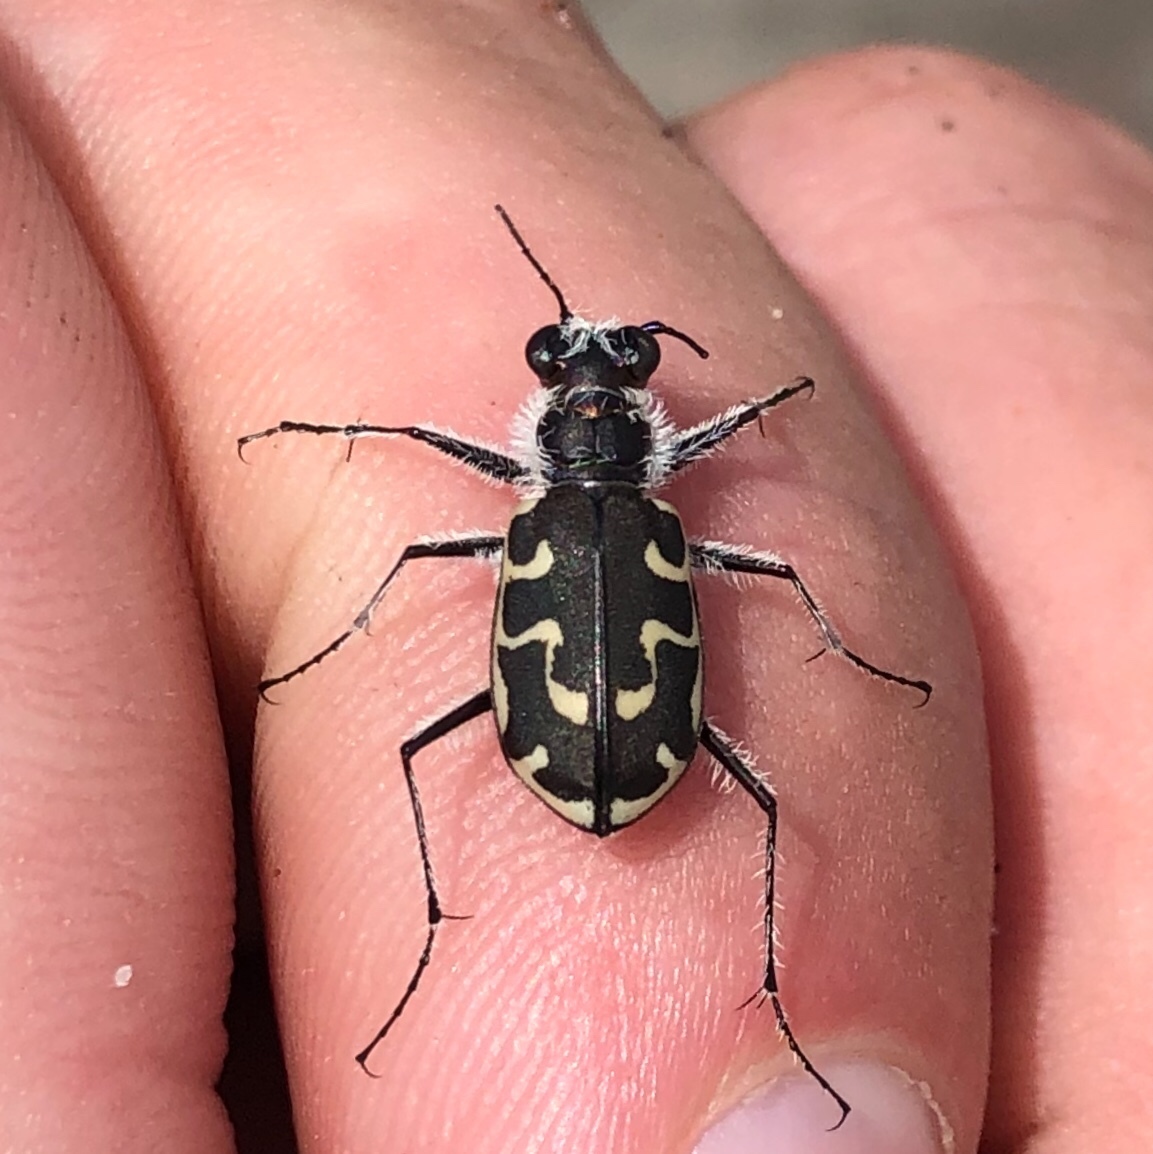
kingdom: Animalia
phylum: Arthropoda
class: Insecta
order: Coleoptera
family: Carabidae
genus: Cicindela
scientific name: Cicindela hirticollis
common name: Hairy-necked tiger beetle
